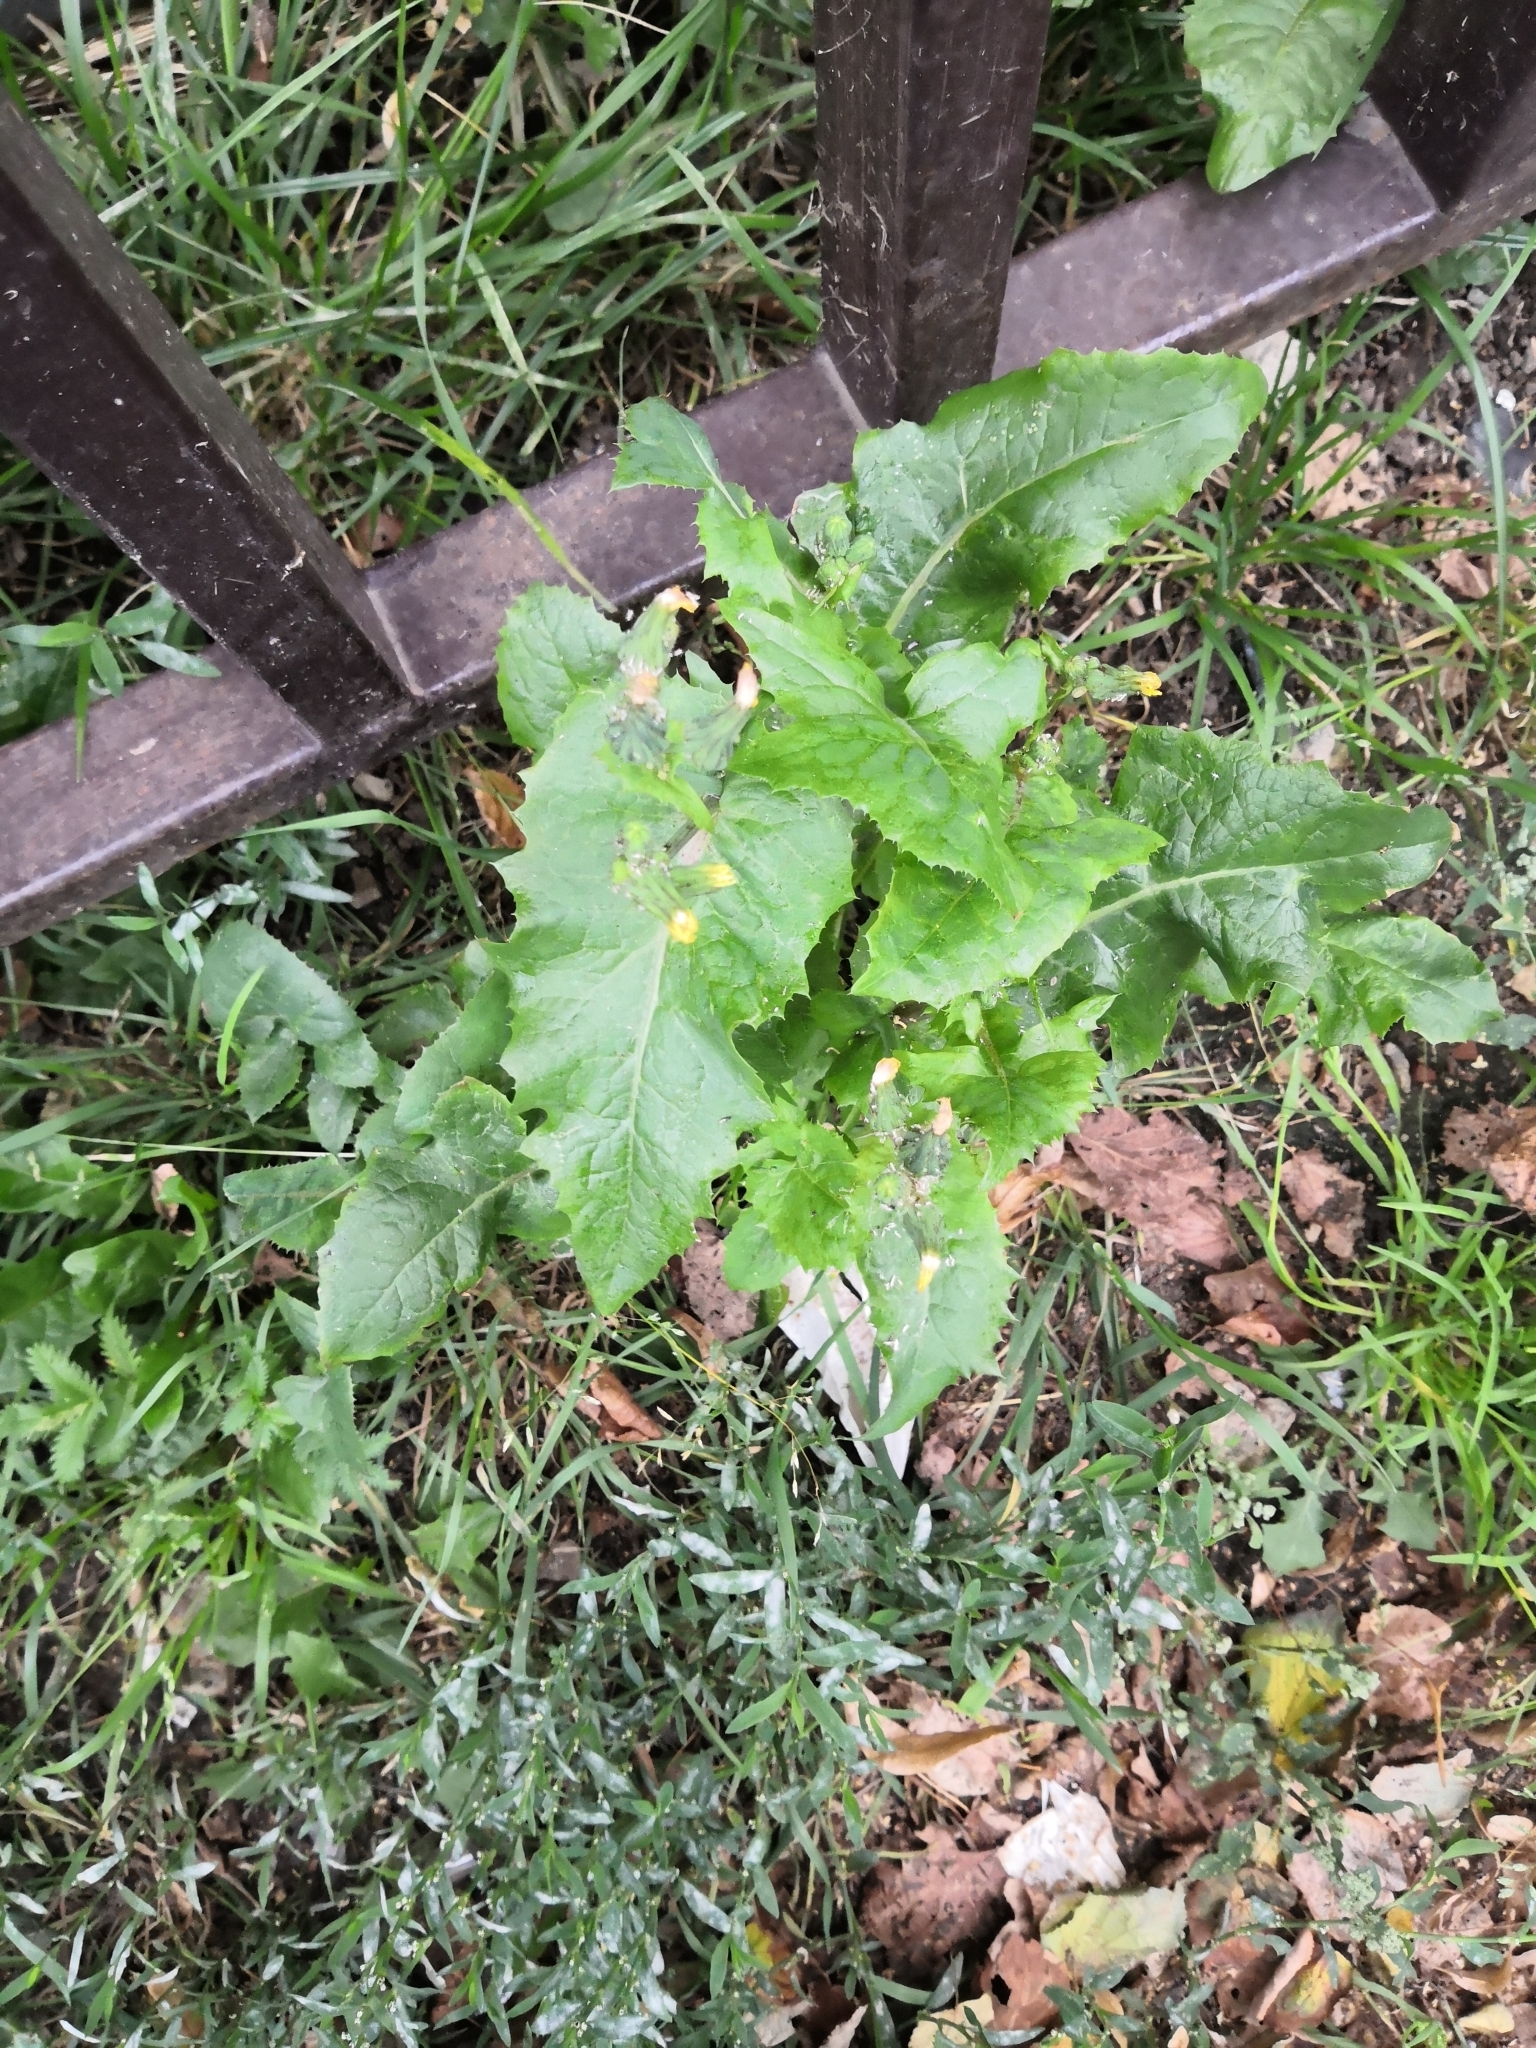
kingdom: Plantae
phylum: Tracheophyta
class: Magnoliopsida
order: Asterales
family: Asteraceae
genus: Sonchus
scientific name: Sonchus asper
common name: Prickly sow-thistle
